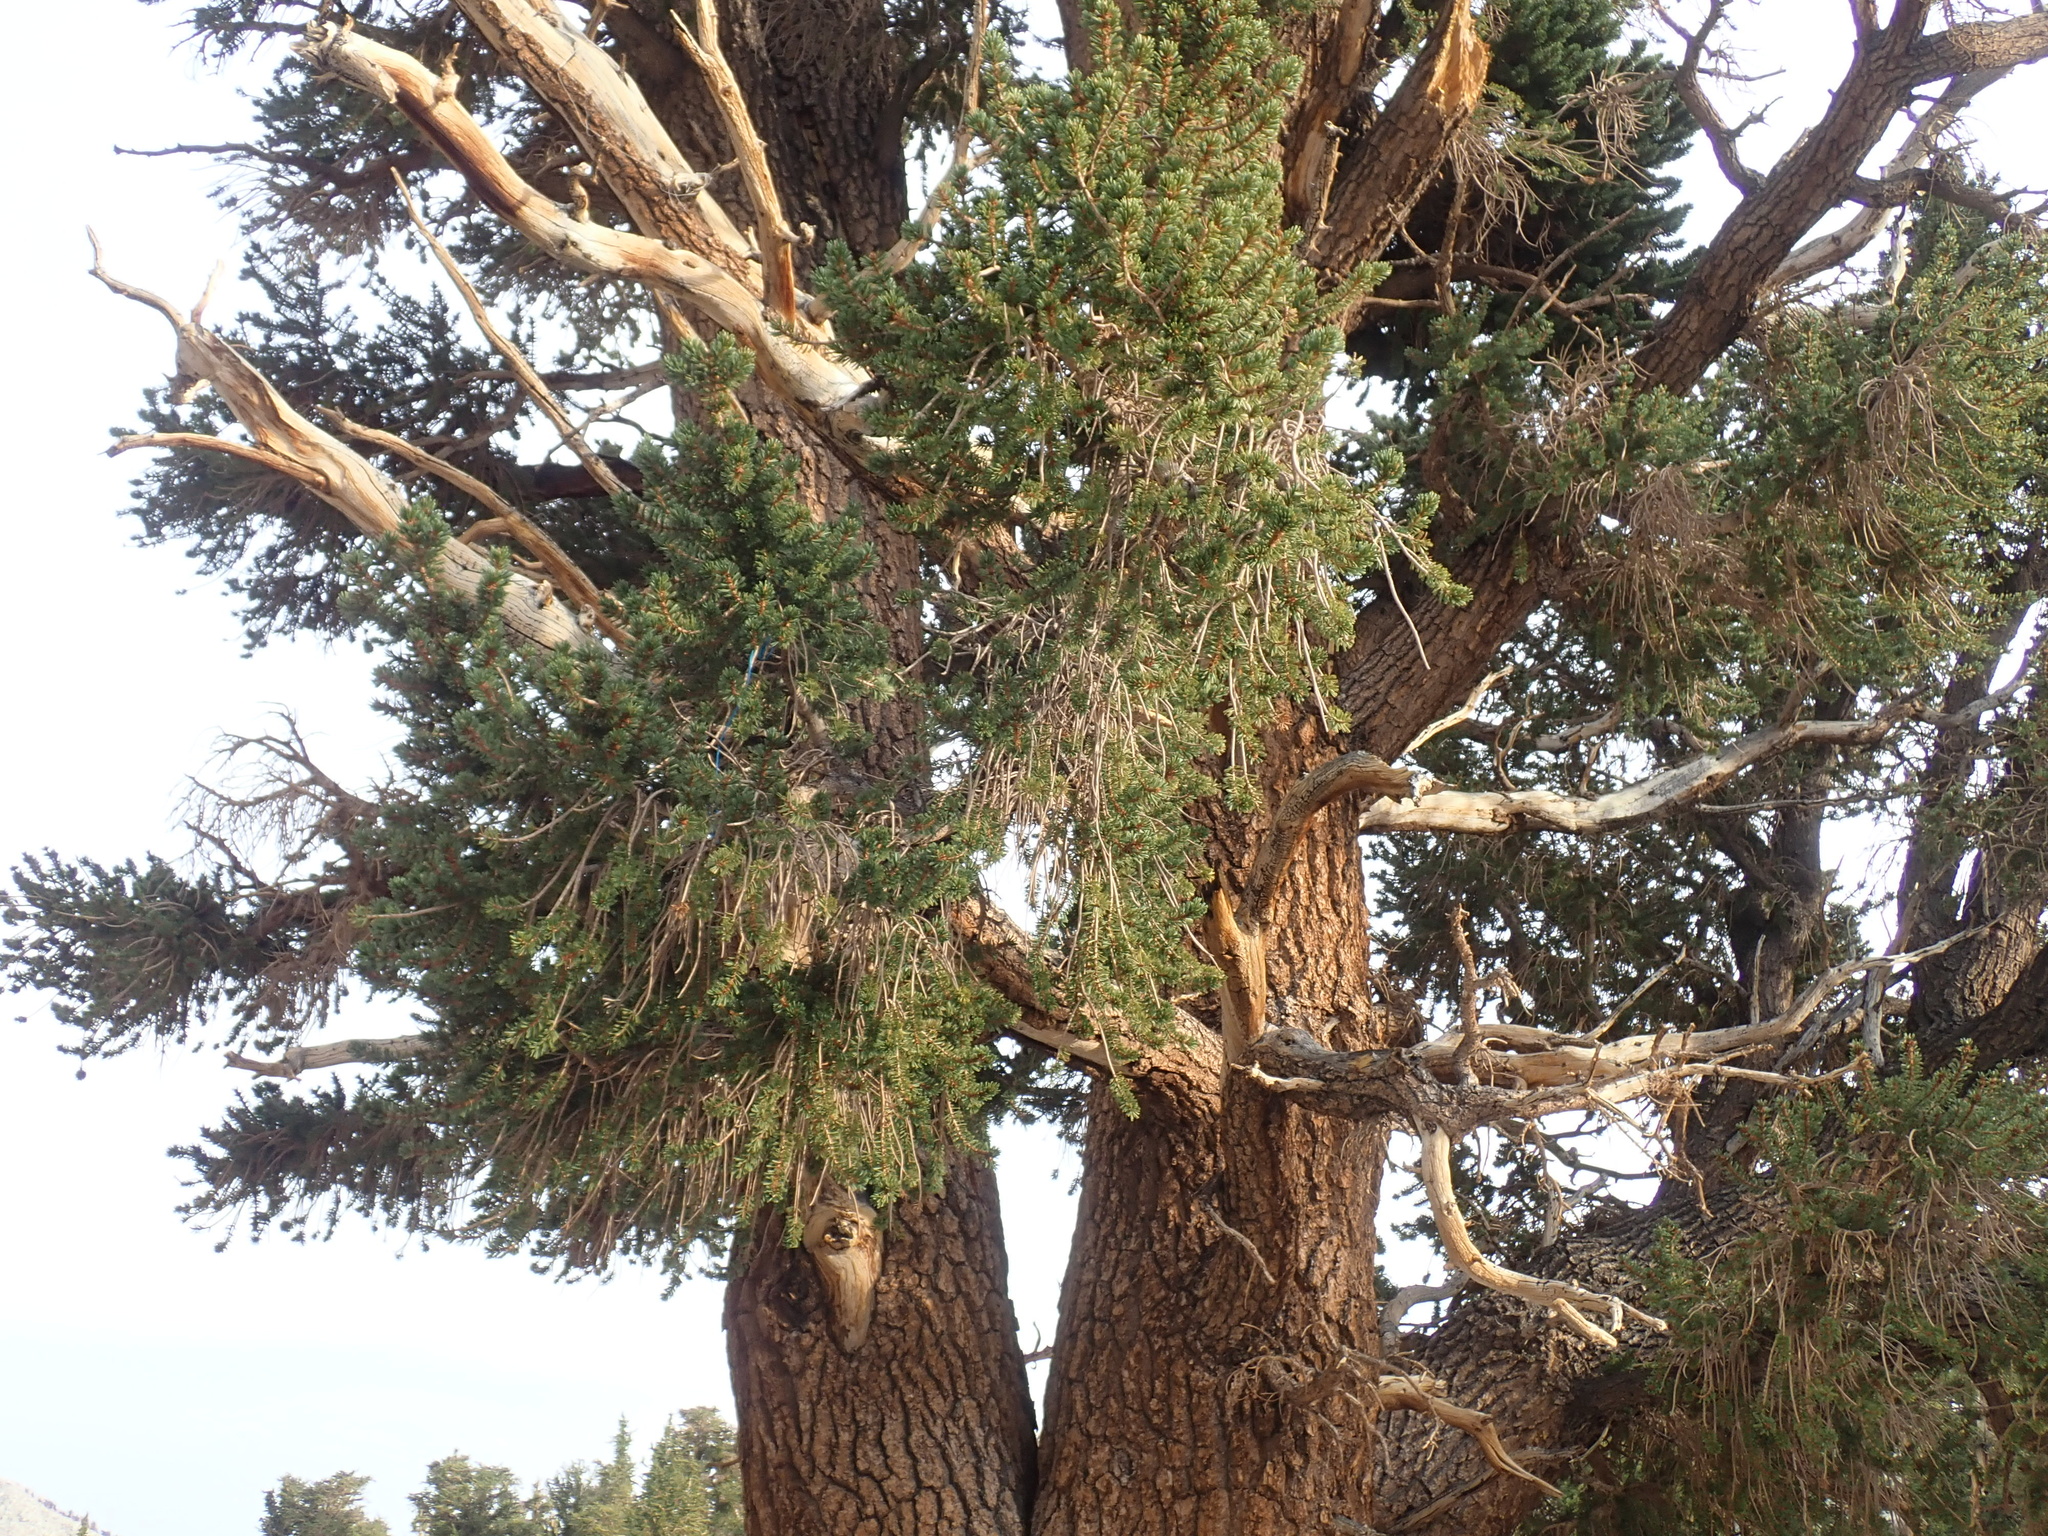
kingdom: Plantae
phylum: Tracheophyta
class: Pinopsida
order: Pinales
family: Pinaceae
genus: Pinus
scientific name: Pinus balfouriana
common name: Foxtail pine
